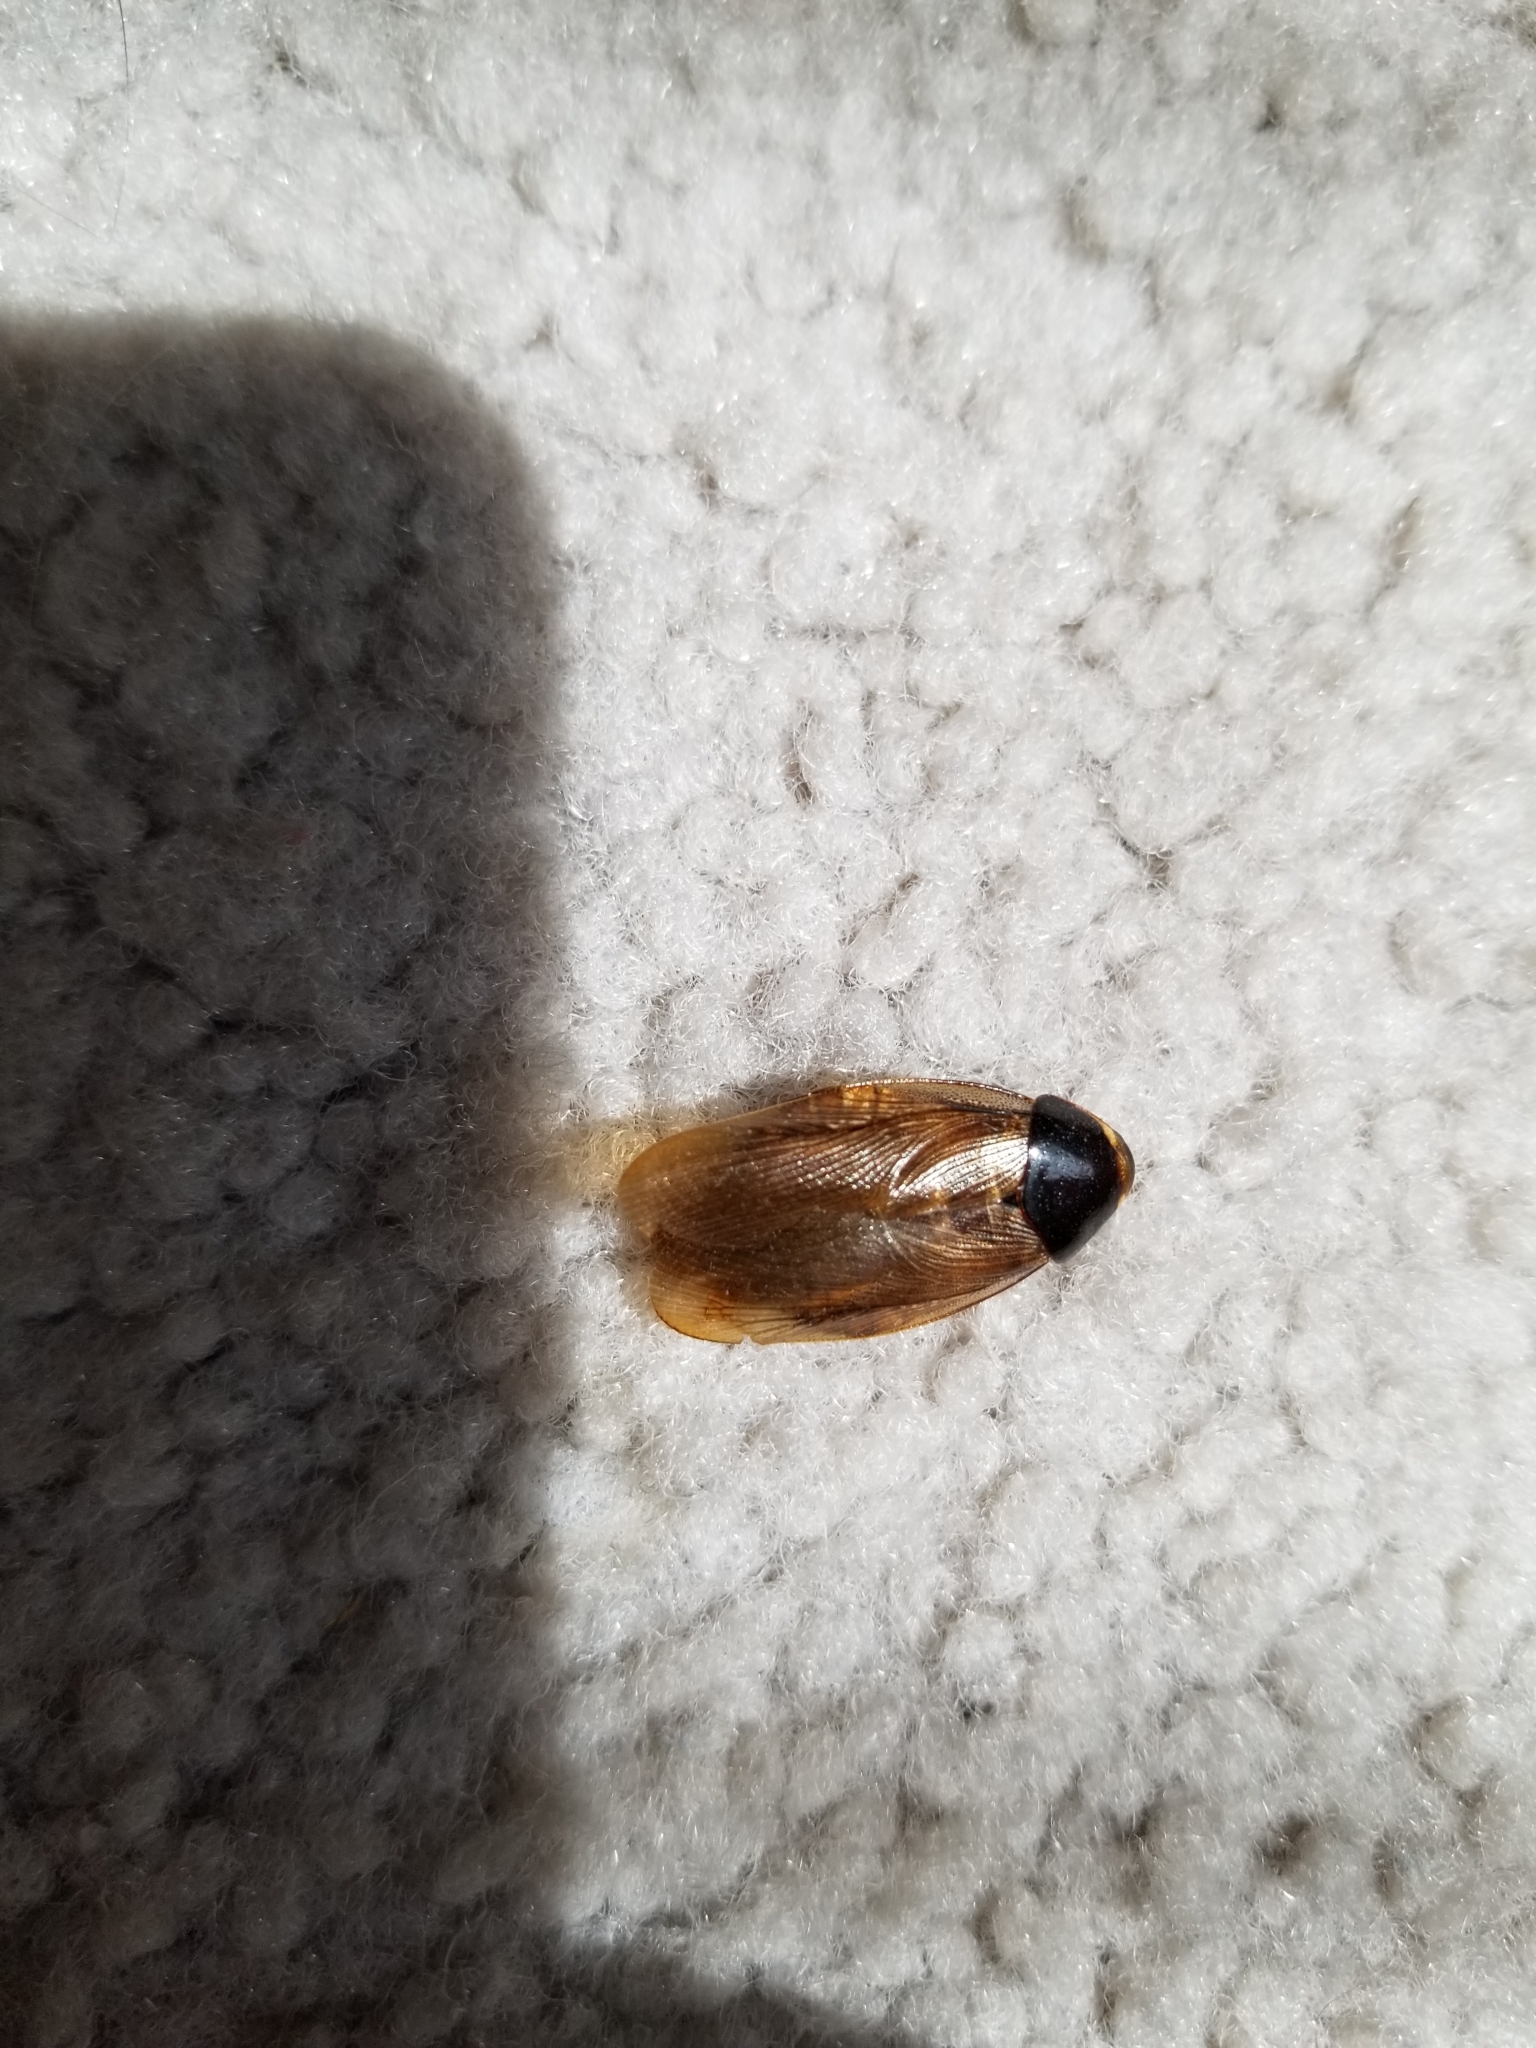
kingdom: Animalia
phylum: Arthropoda
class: Insecta
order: Blattodea
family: Blaberidae
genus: Pycnoscelus
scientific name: Pycnoscelus surinamensis
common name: Surinam cockroach
